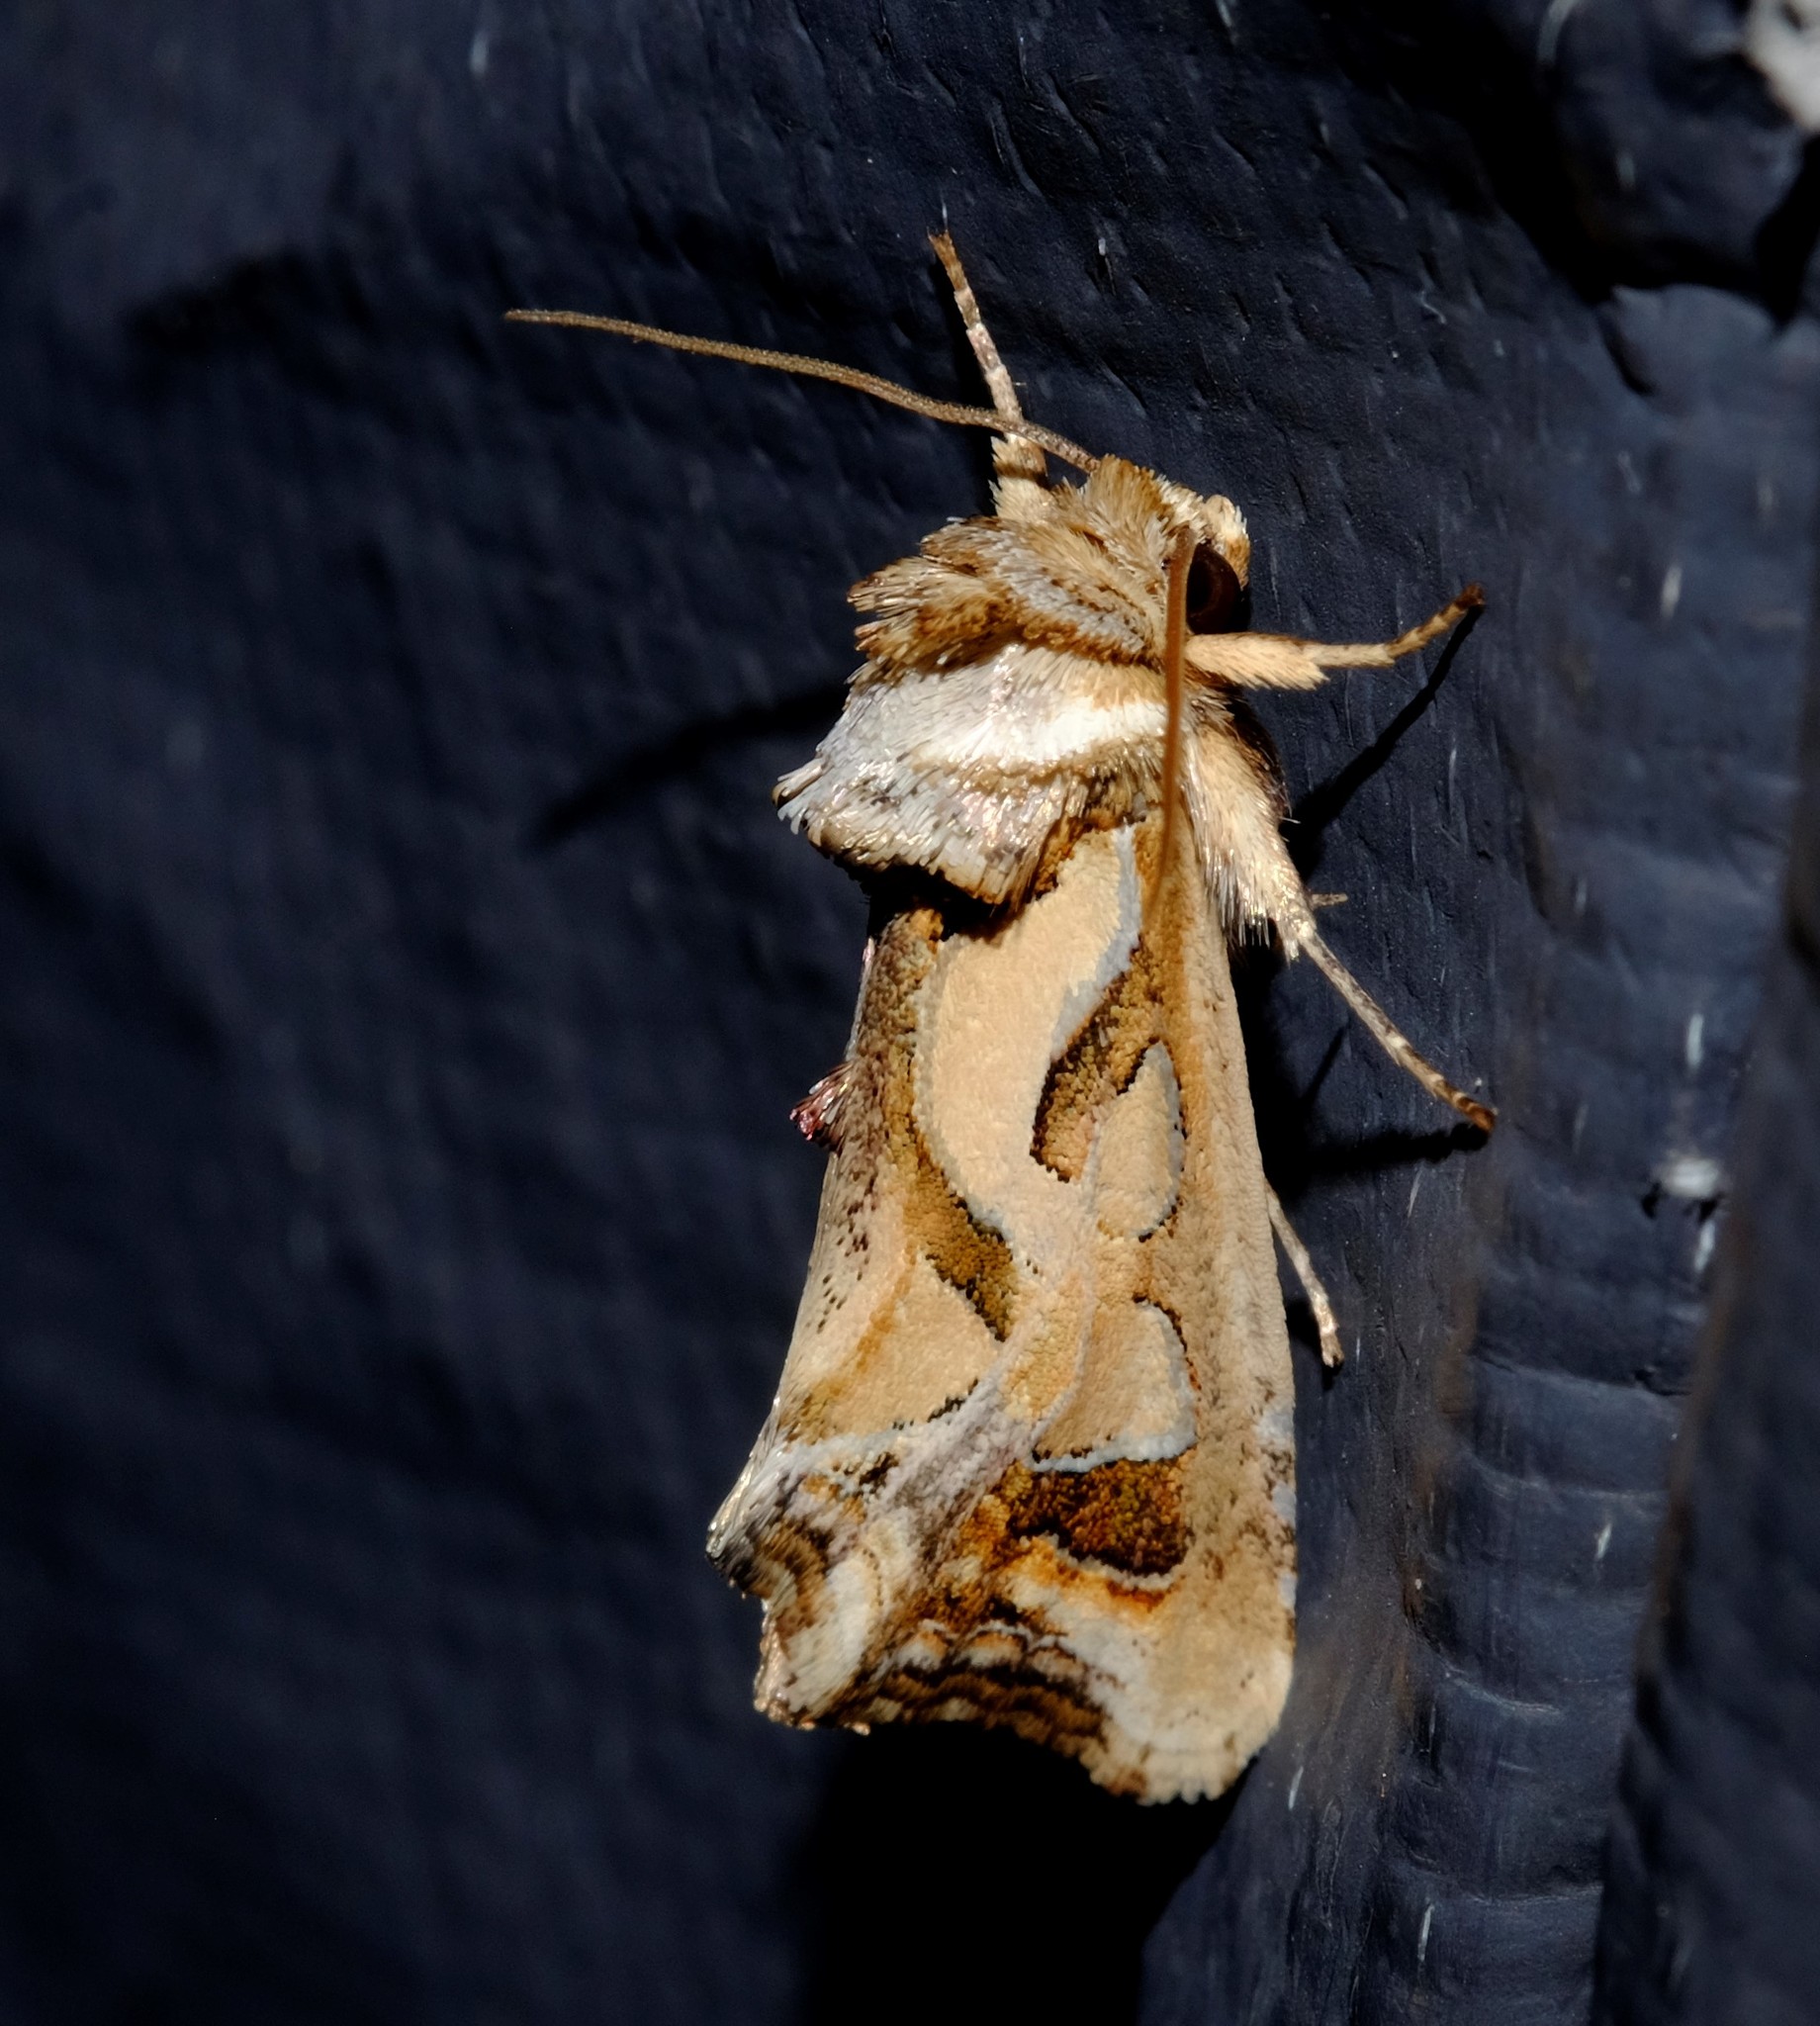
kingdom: Animalia
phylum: Arthropoda
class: Insecta
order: Lepidoptera
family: Noctuidae
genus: Cosmodes
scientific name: Cosmodes elegans
